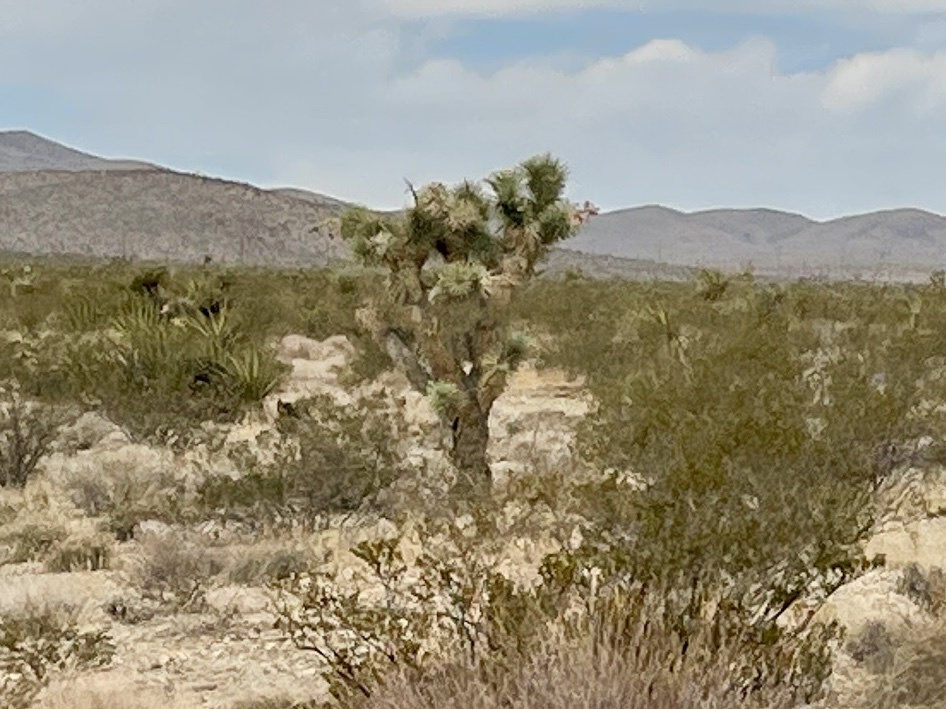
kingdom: Plantae
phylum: Tracheophyta
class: Liliopsida
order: Asparagales
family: Asparagaceae
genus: Yucca
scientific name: Yucca brevifolia
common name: Joshua tree
